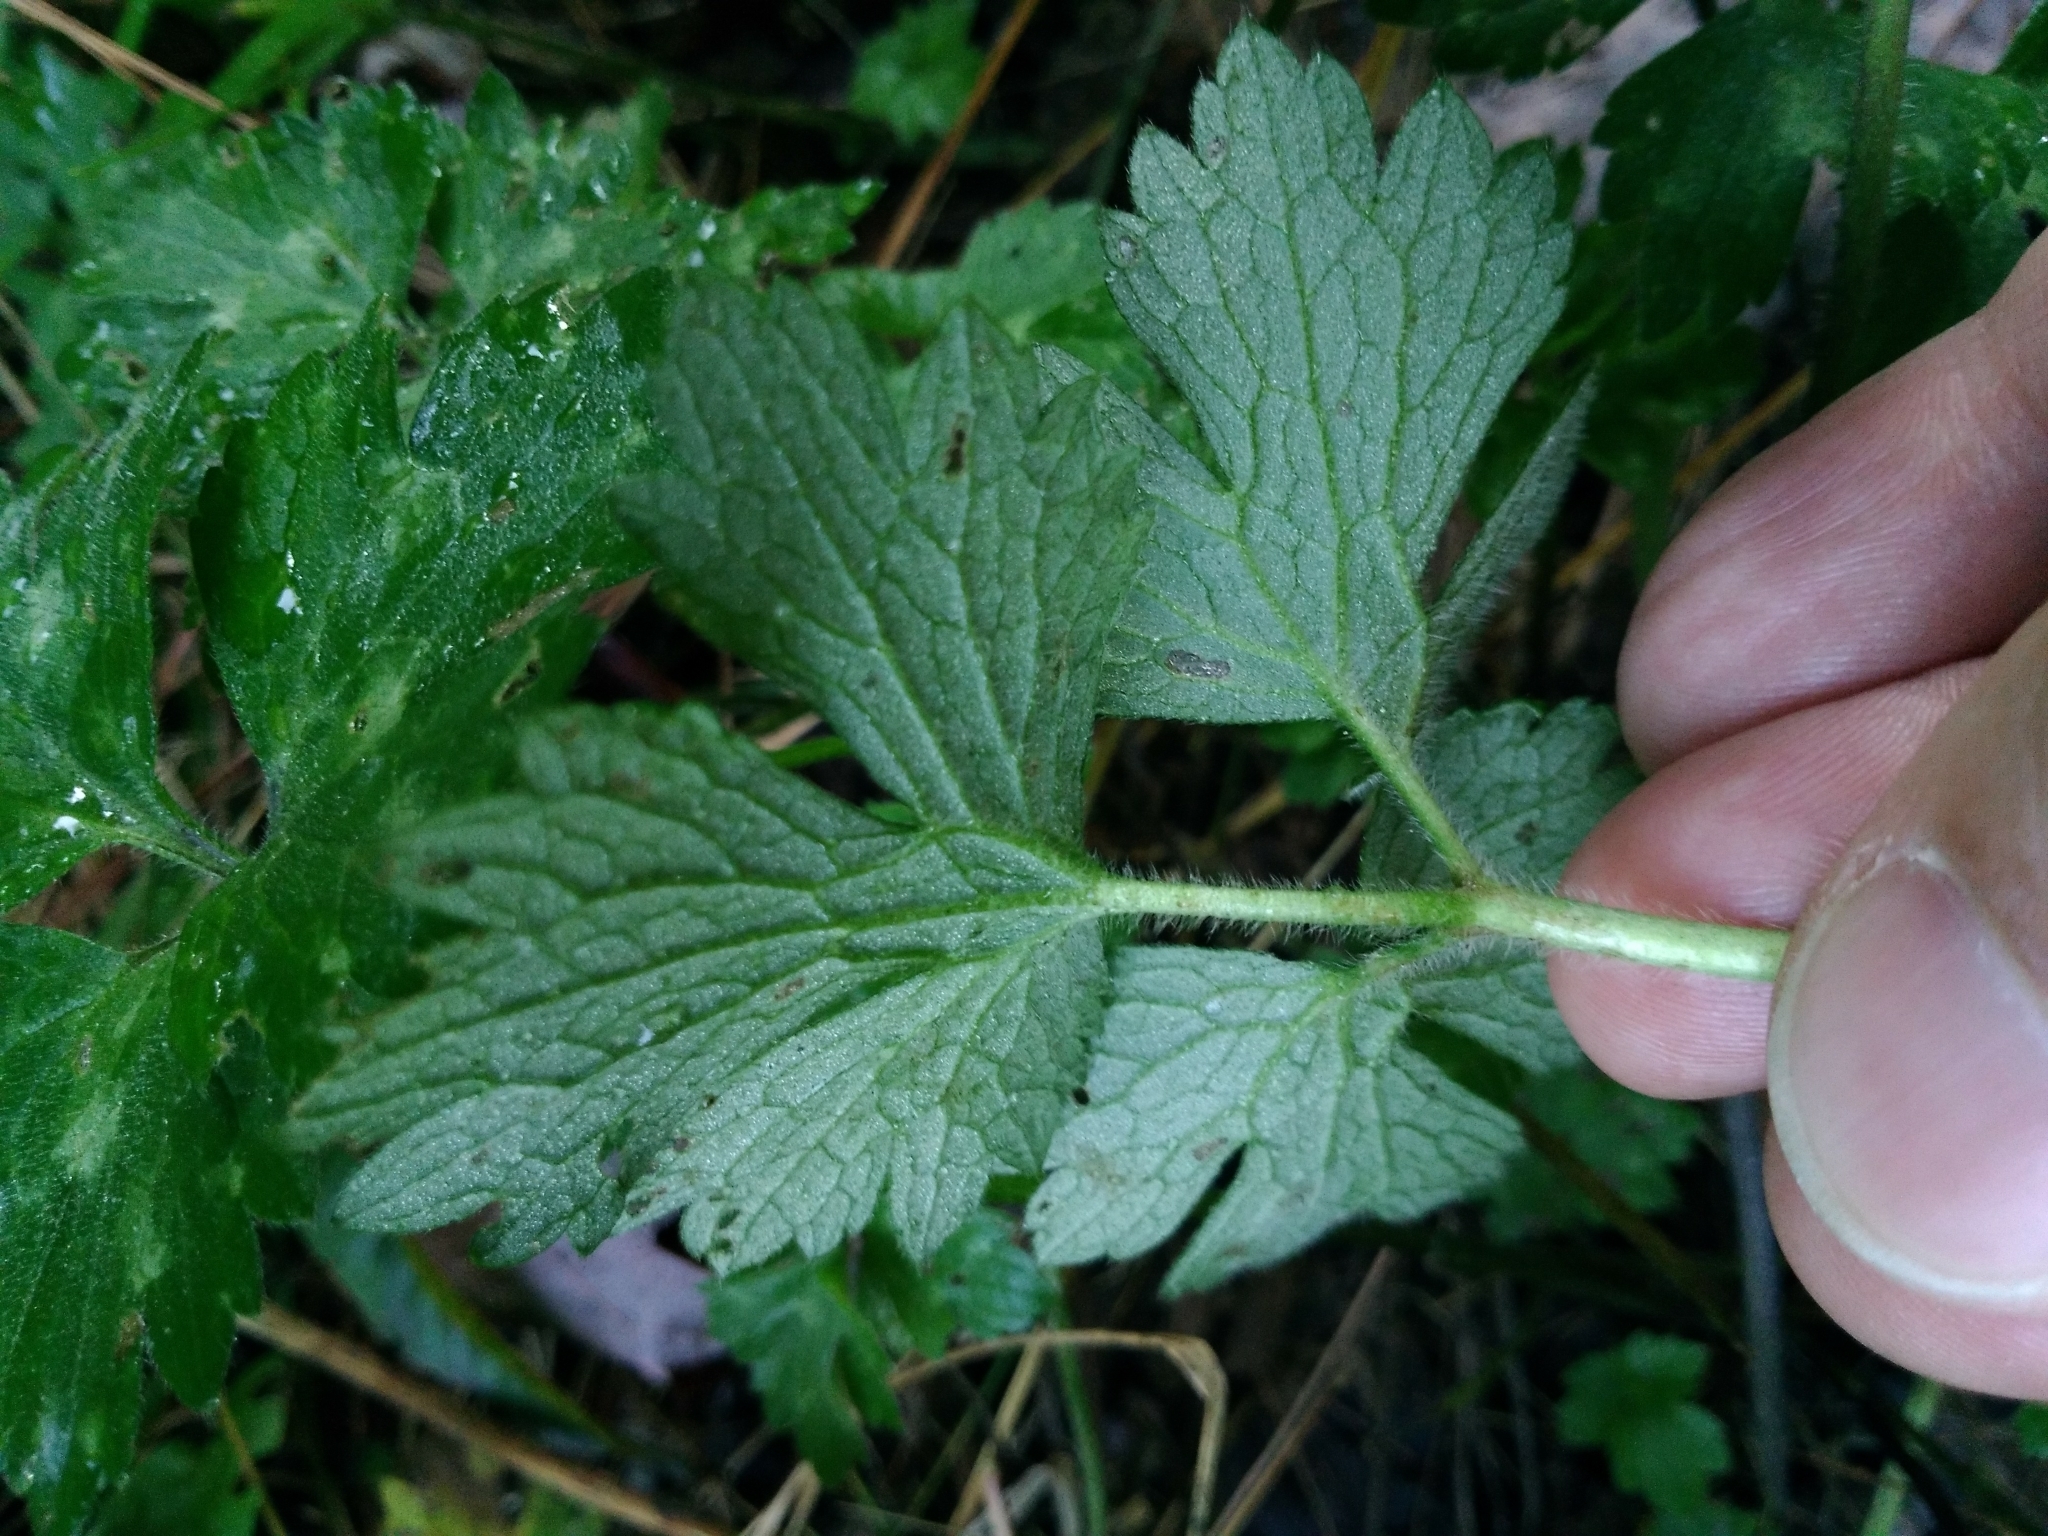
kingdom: Plantae
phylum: Tracheophyta
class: Magnoliopsida
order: Ranunculales
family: Ranunculaceae
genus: Ranunculus
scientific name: Ranunculus repens
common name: Creeping buttercup
